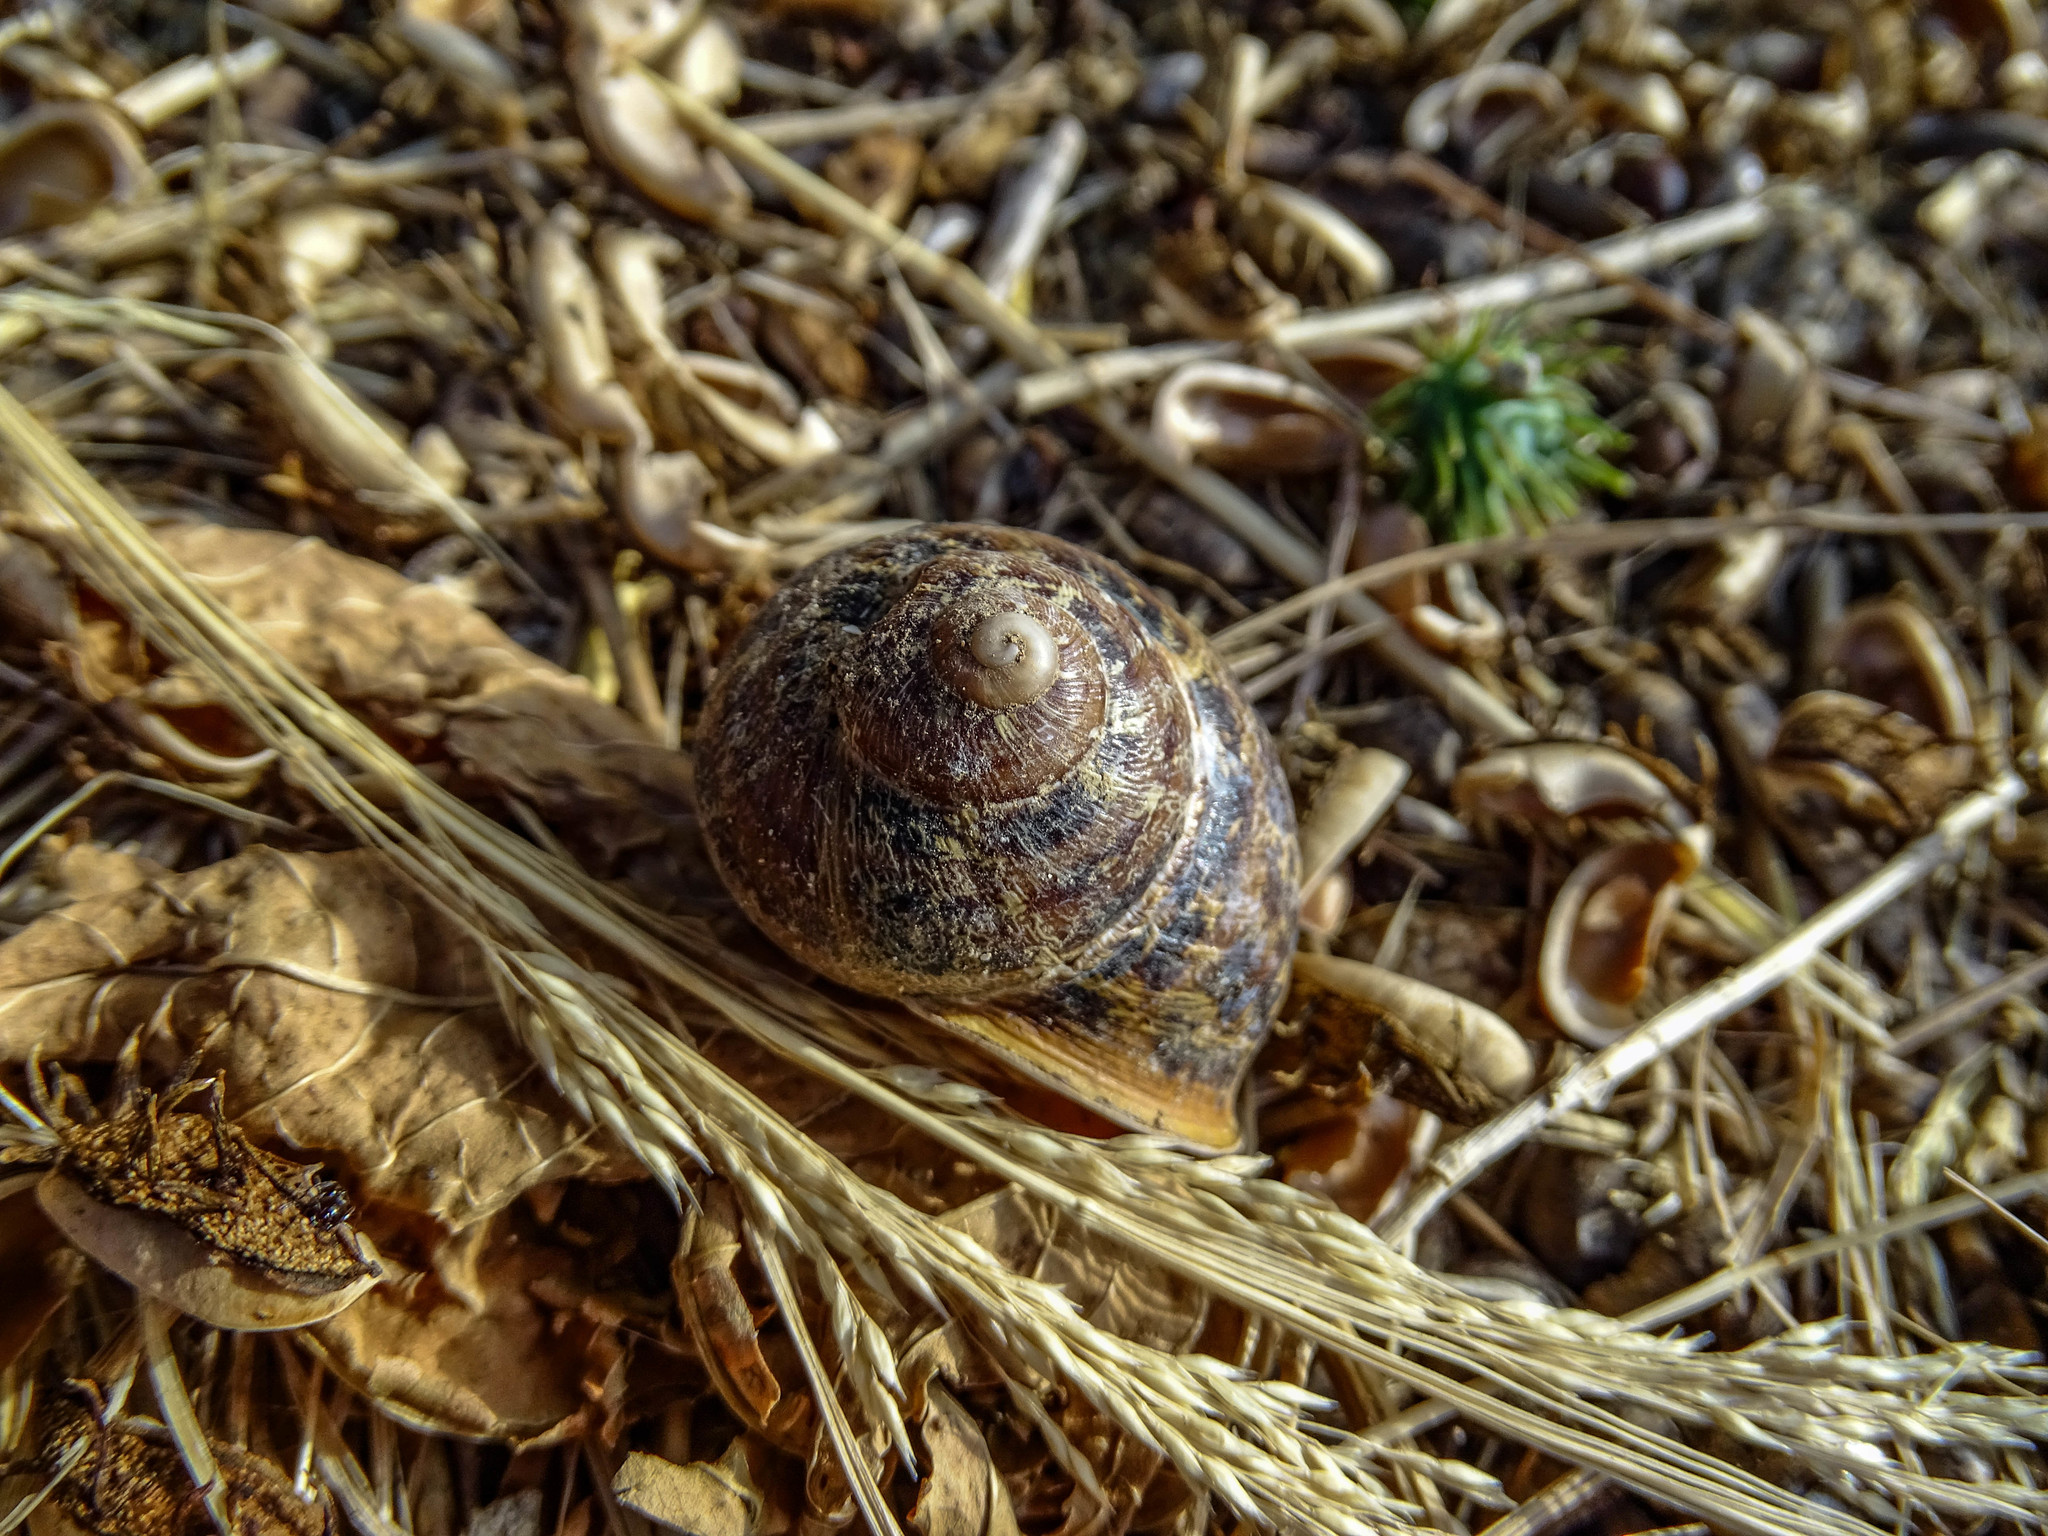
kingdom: Animalia
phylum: Mollusca
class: Gastropoda
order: Stylommatophora
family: Helicidae
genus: Cornu
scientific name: Cornu aspersum
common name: Brown garden snail
